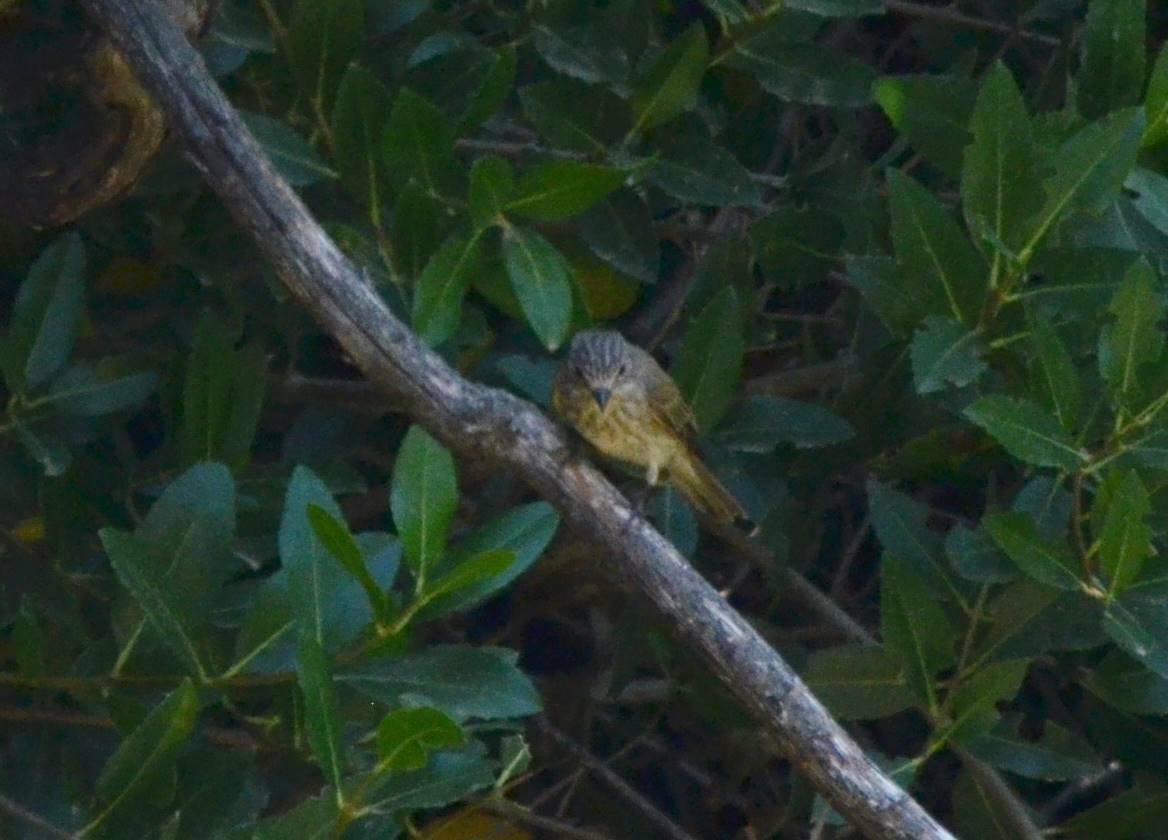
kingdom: Animalia
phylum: Chordata
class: Aves
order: Passeriformes
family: Muscicapidae
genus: Muscicapa
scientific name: Muscicapa striata
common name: Spotted flycatcher
